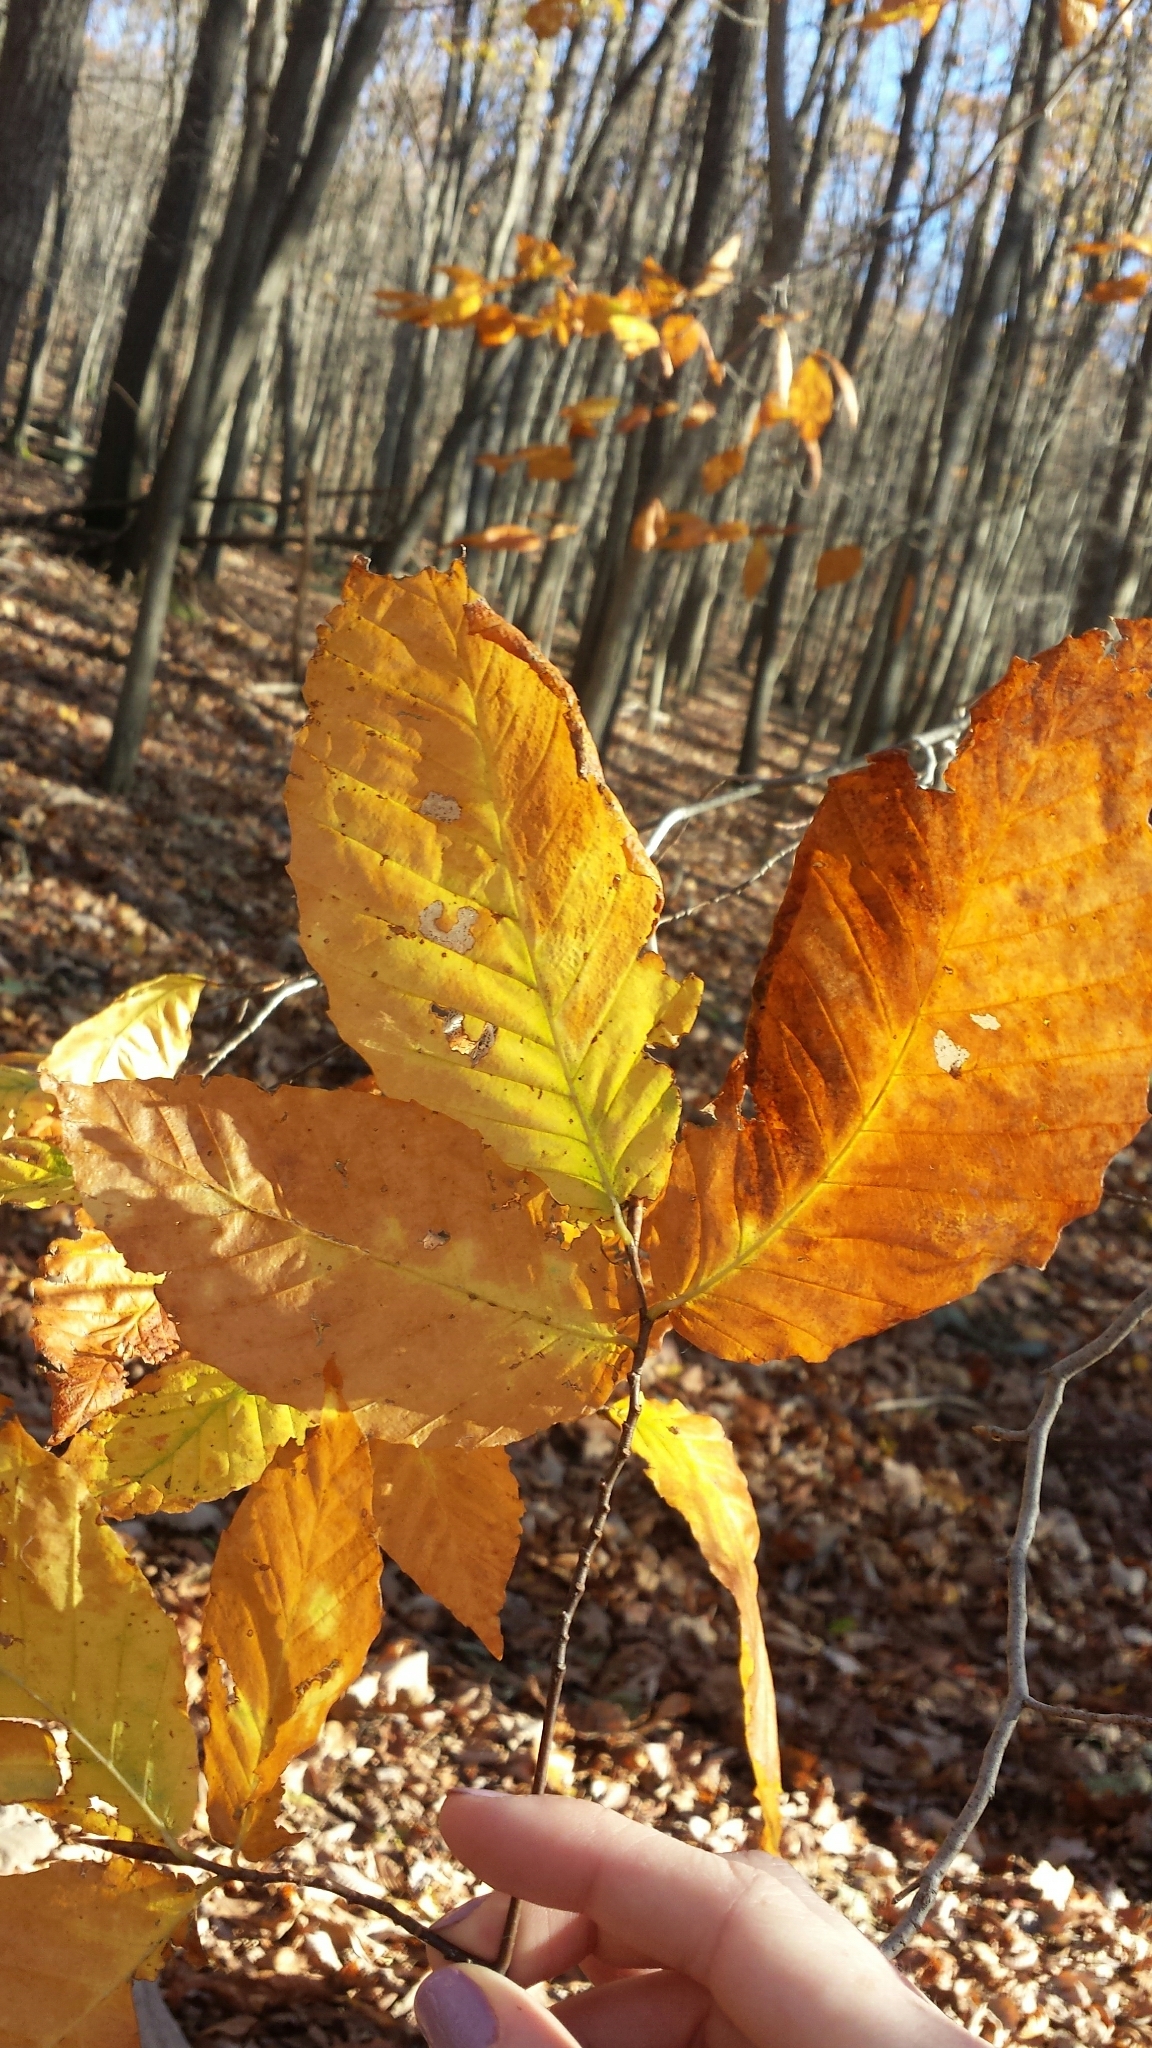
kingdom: Plantae
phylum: Tracheophyta
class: Magnoliopsida
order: Fagales
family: Fagaceae
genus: Fagus
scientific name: Fagus grandifolia
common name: American beech
